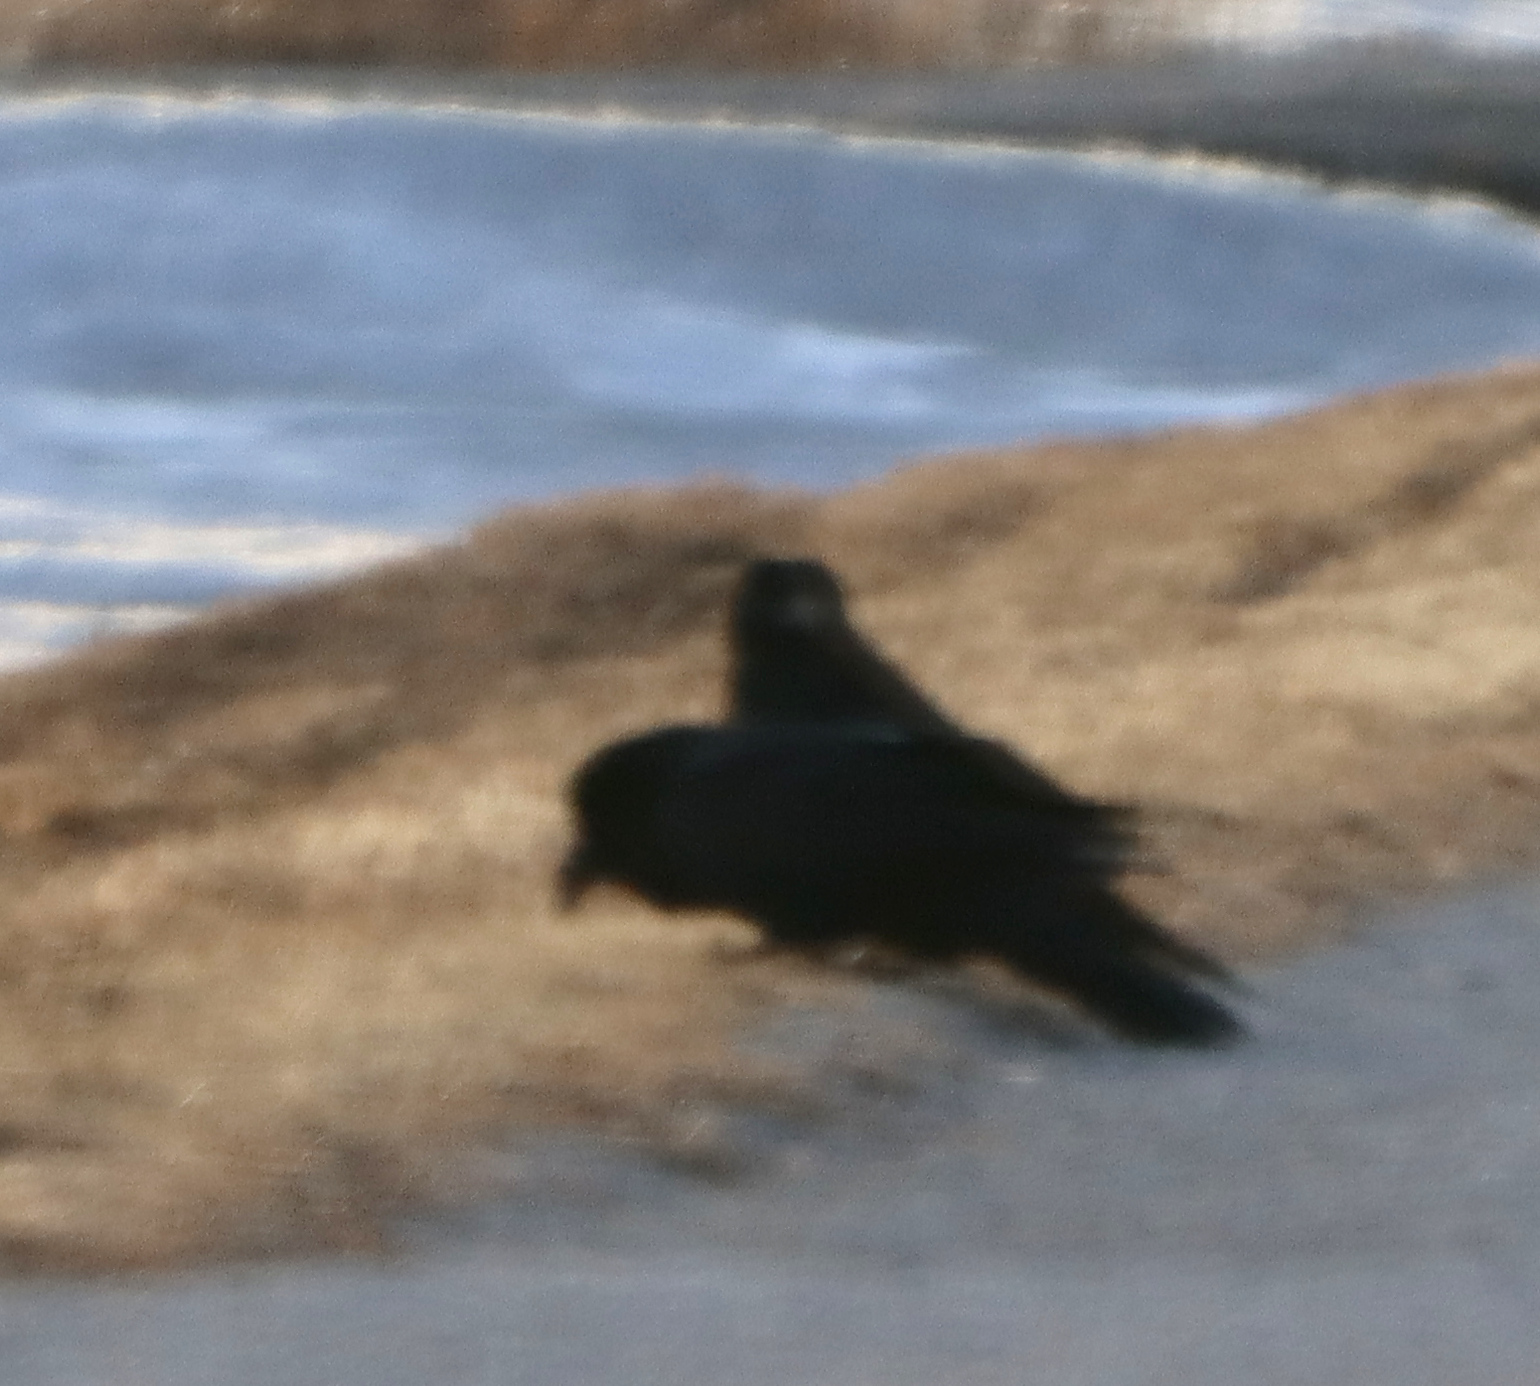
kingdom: Animalia
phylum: Chordata
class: Aves
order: Passeriformes
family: Corvidae
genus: Corvus
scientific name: Corvus corax
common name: Common raven
